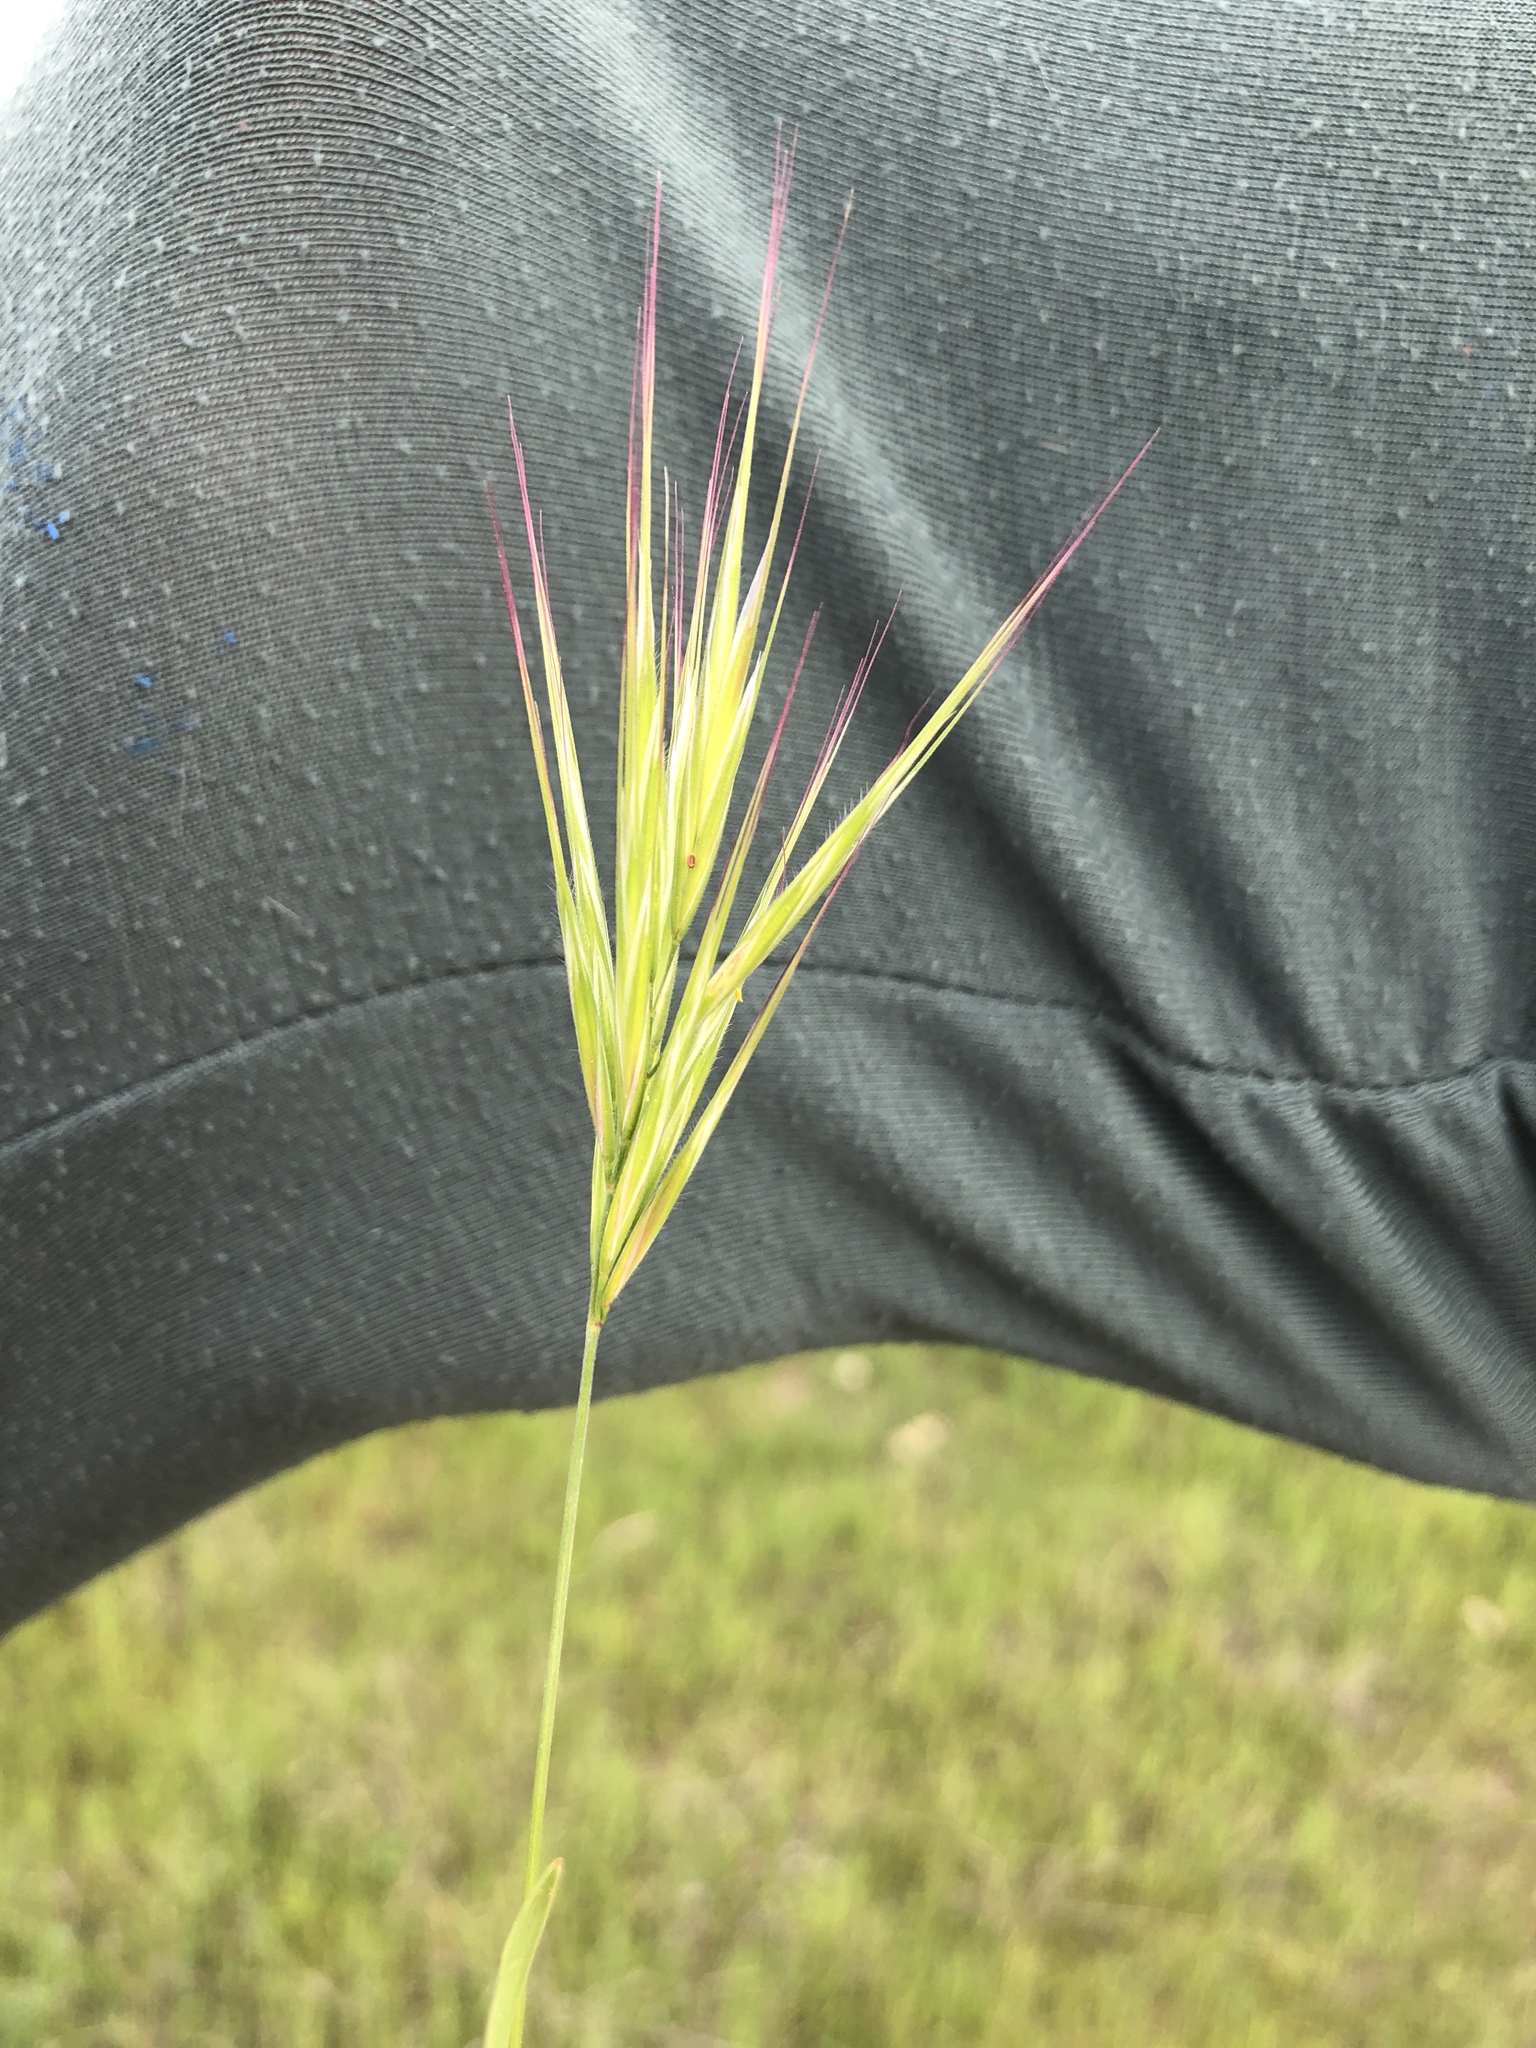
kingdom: Plantae
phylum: Tracheophyta
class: Liliopsida
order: Poales
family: Poaceae
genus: Bromus
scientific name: Bromus madritensis
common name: Compact brome
